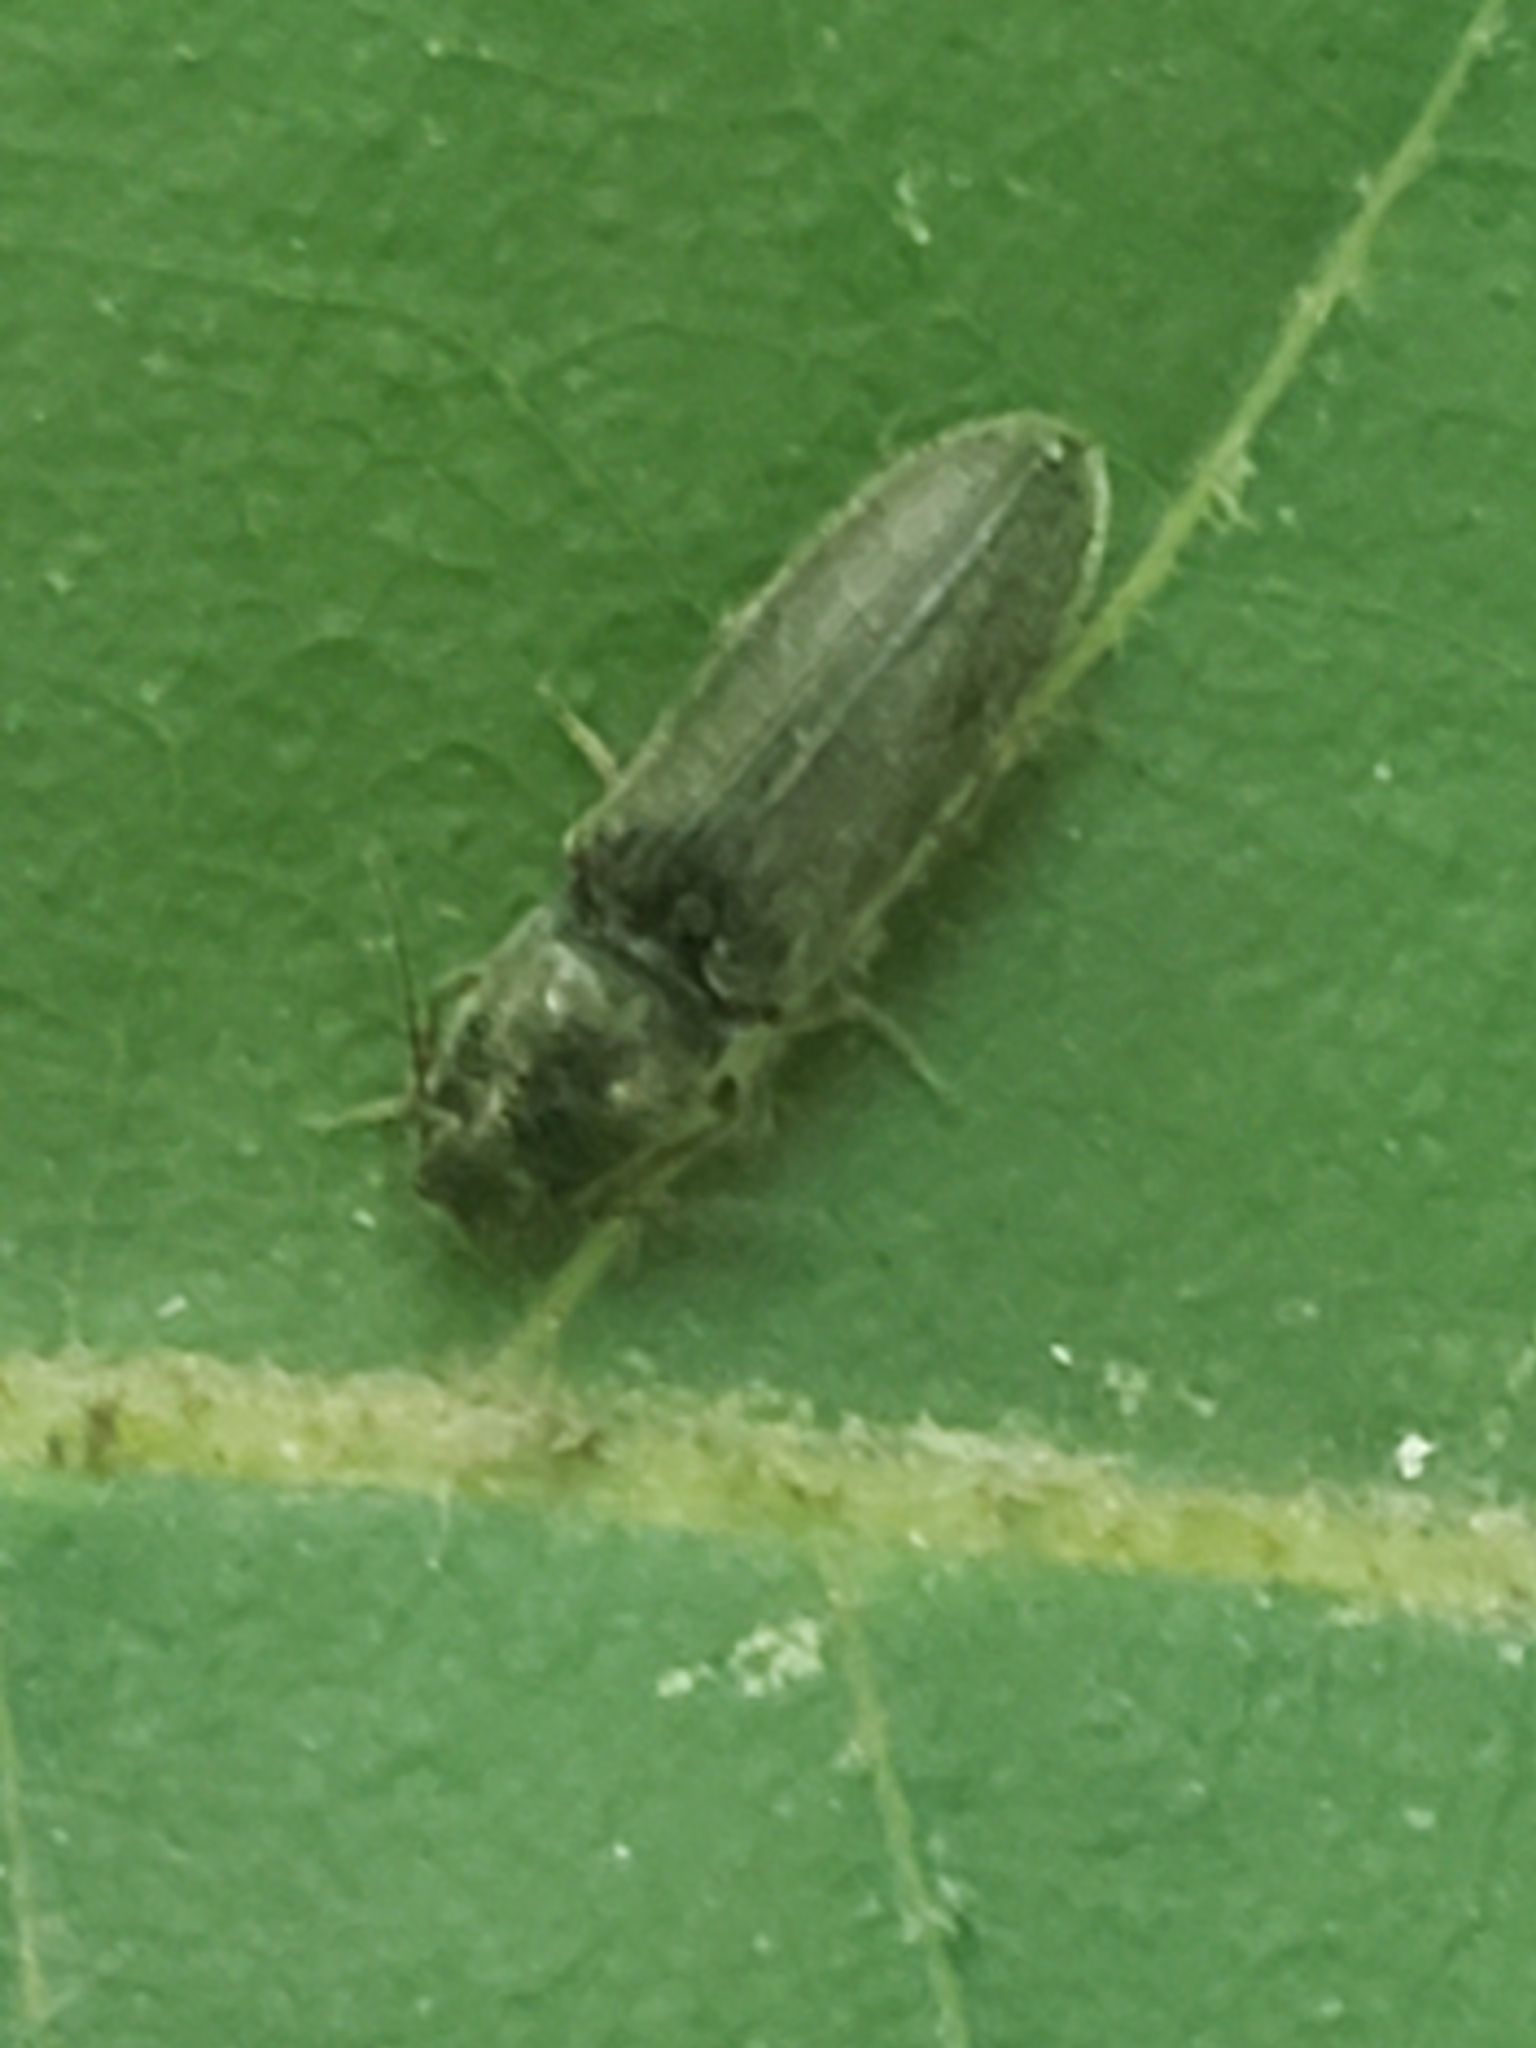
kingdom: Animalia
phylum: Arthropoda
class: Insecta
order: Coleoptera
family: Elateridae
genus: Limonius
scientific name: Limonius quercinus
